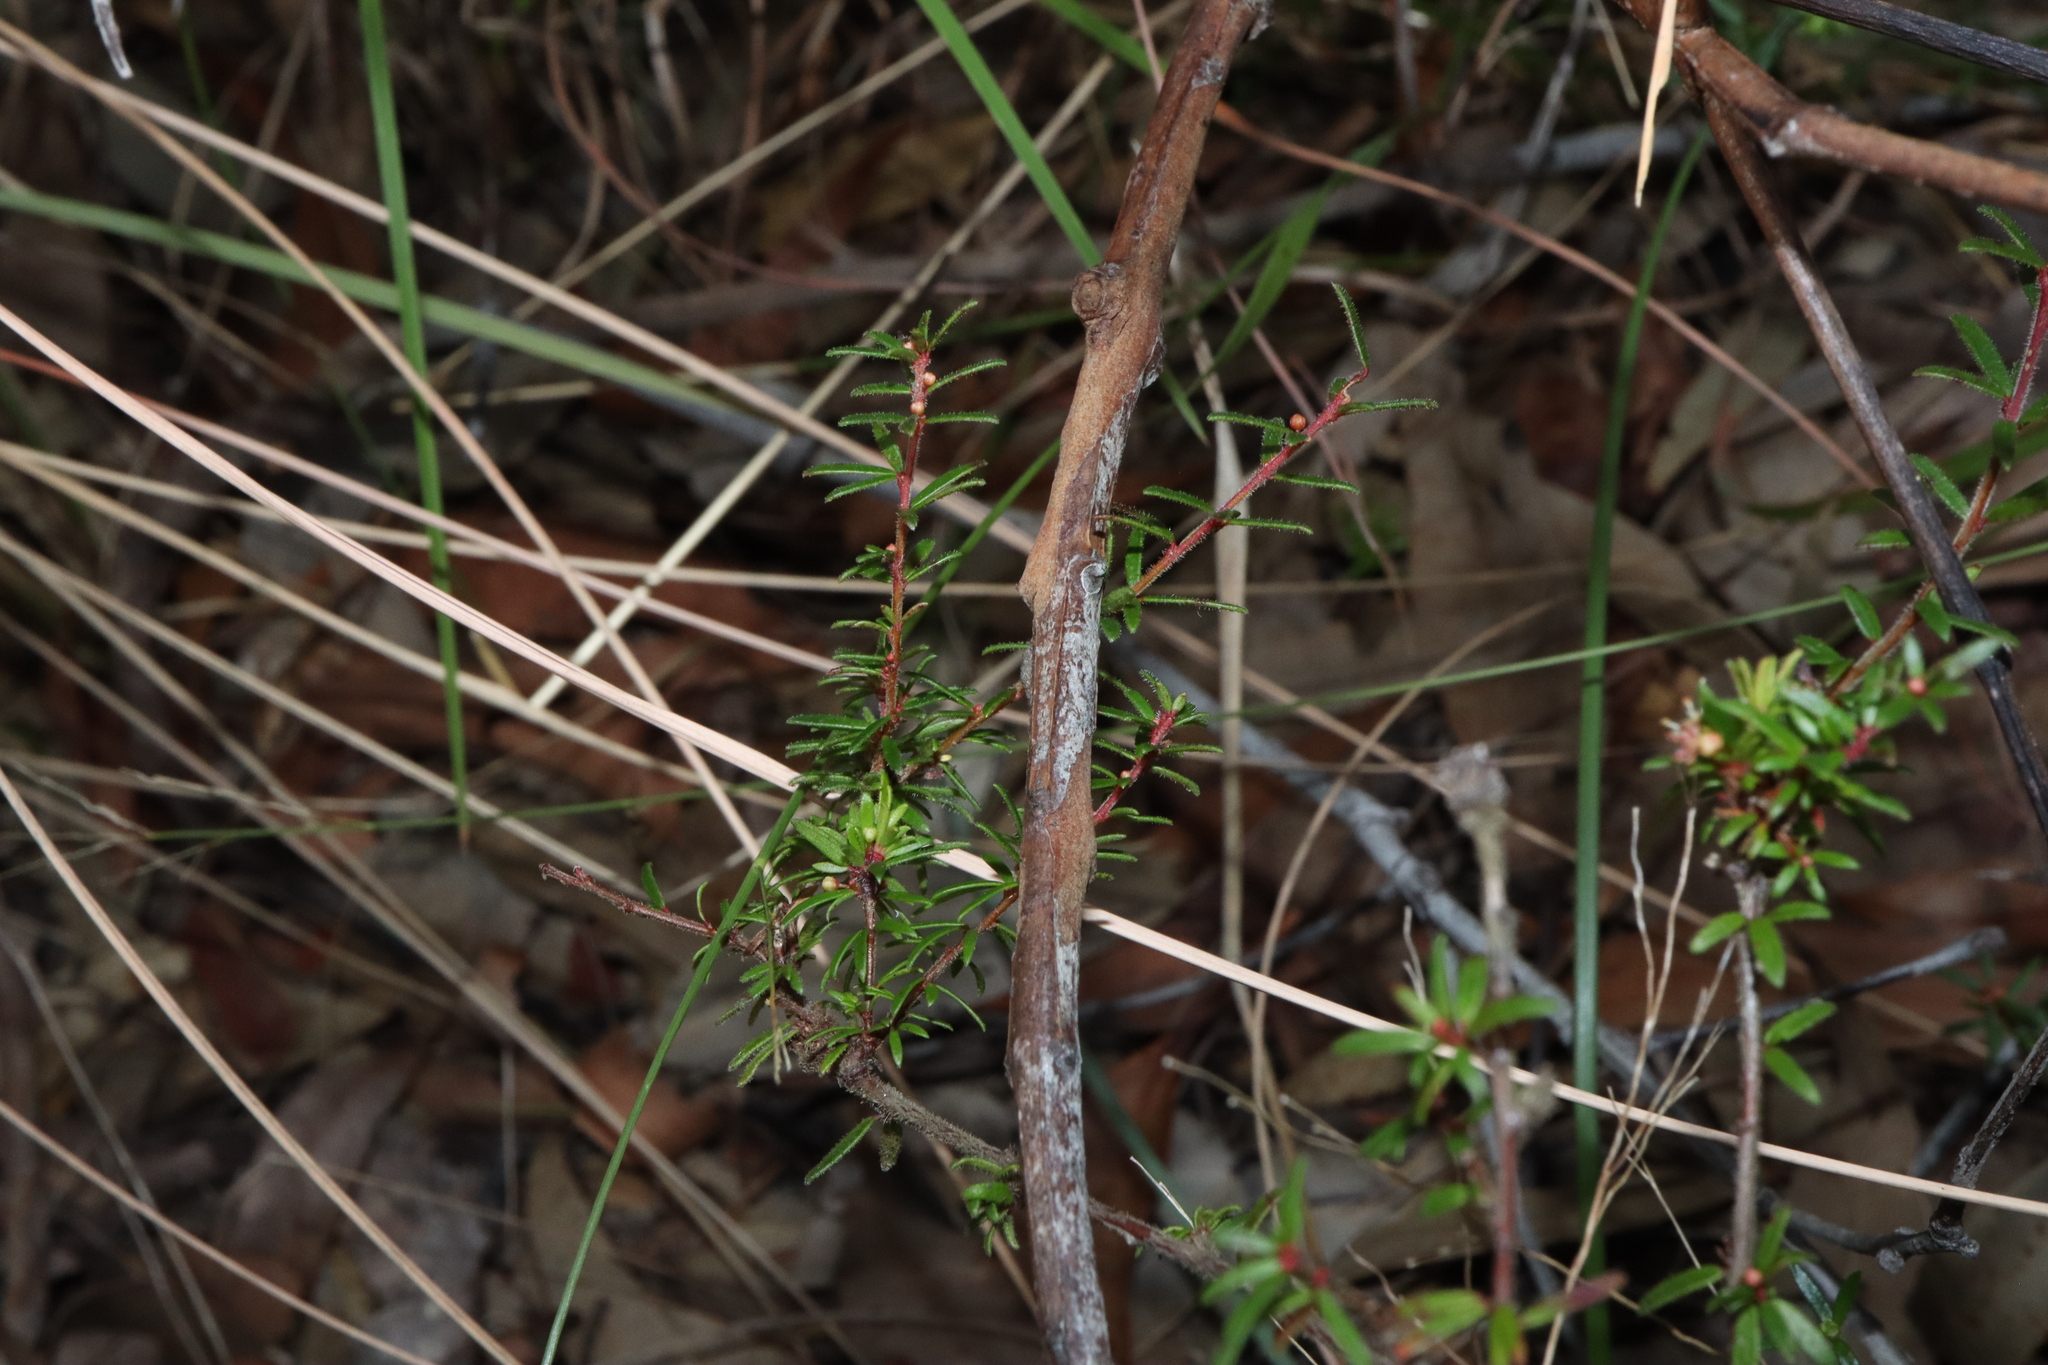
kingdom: Plantae
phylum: Tracheophyta
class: Magnoliopsida
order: Malpighiales
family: Picrodendraceae
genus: Micrantheum
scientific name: Micrantheum ericoides
